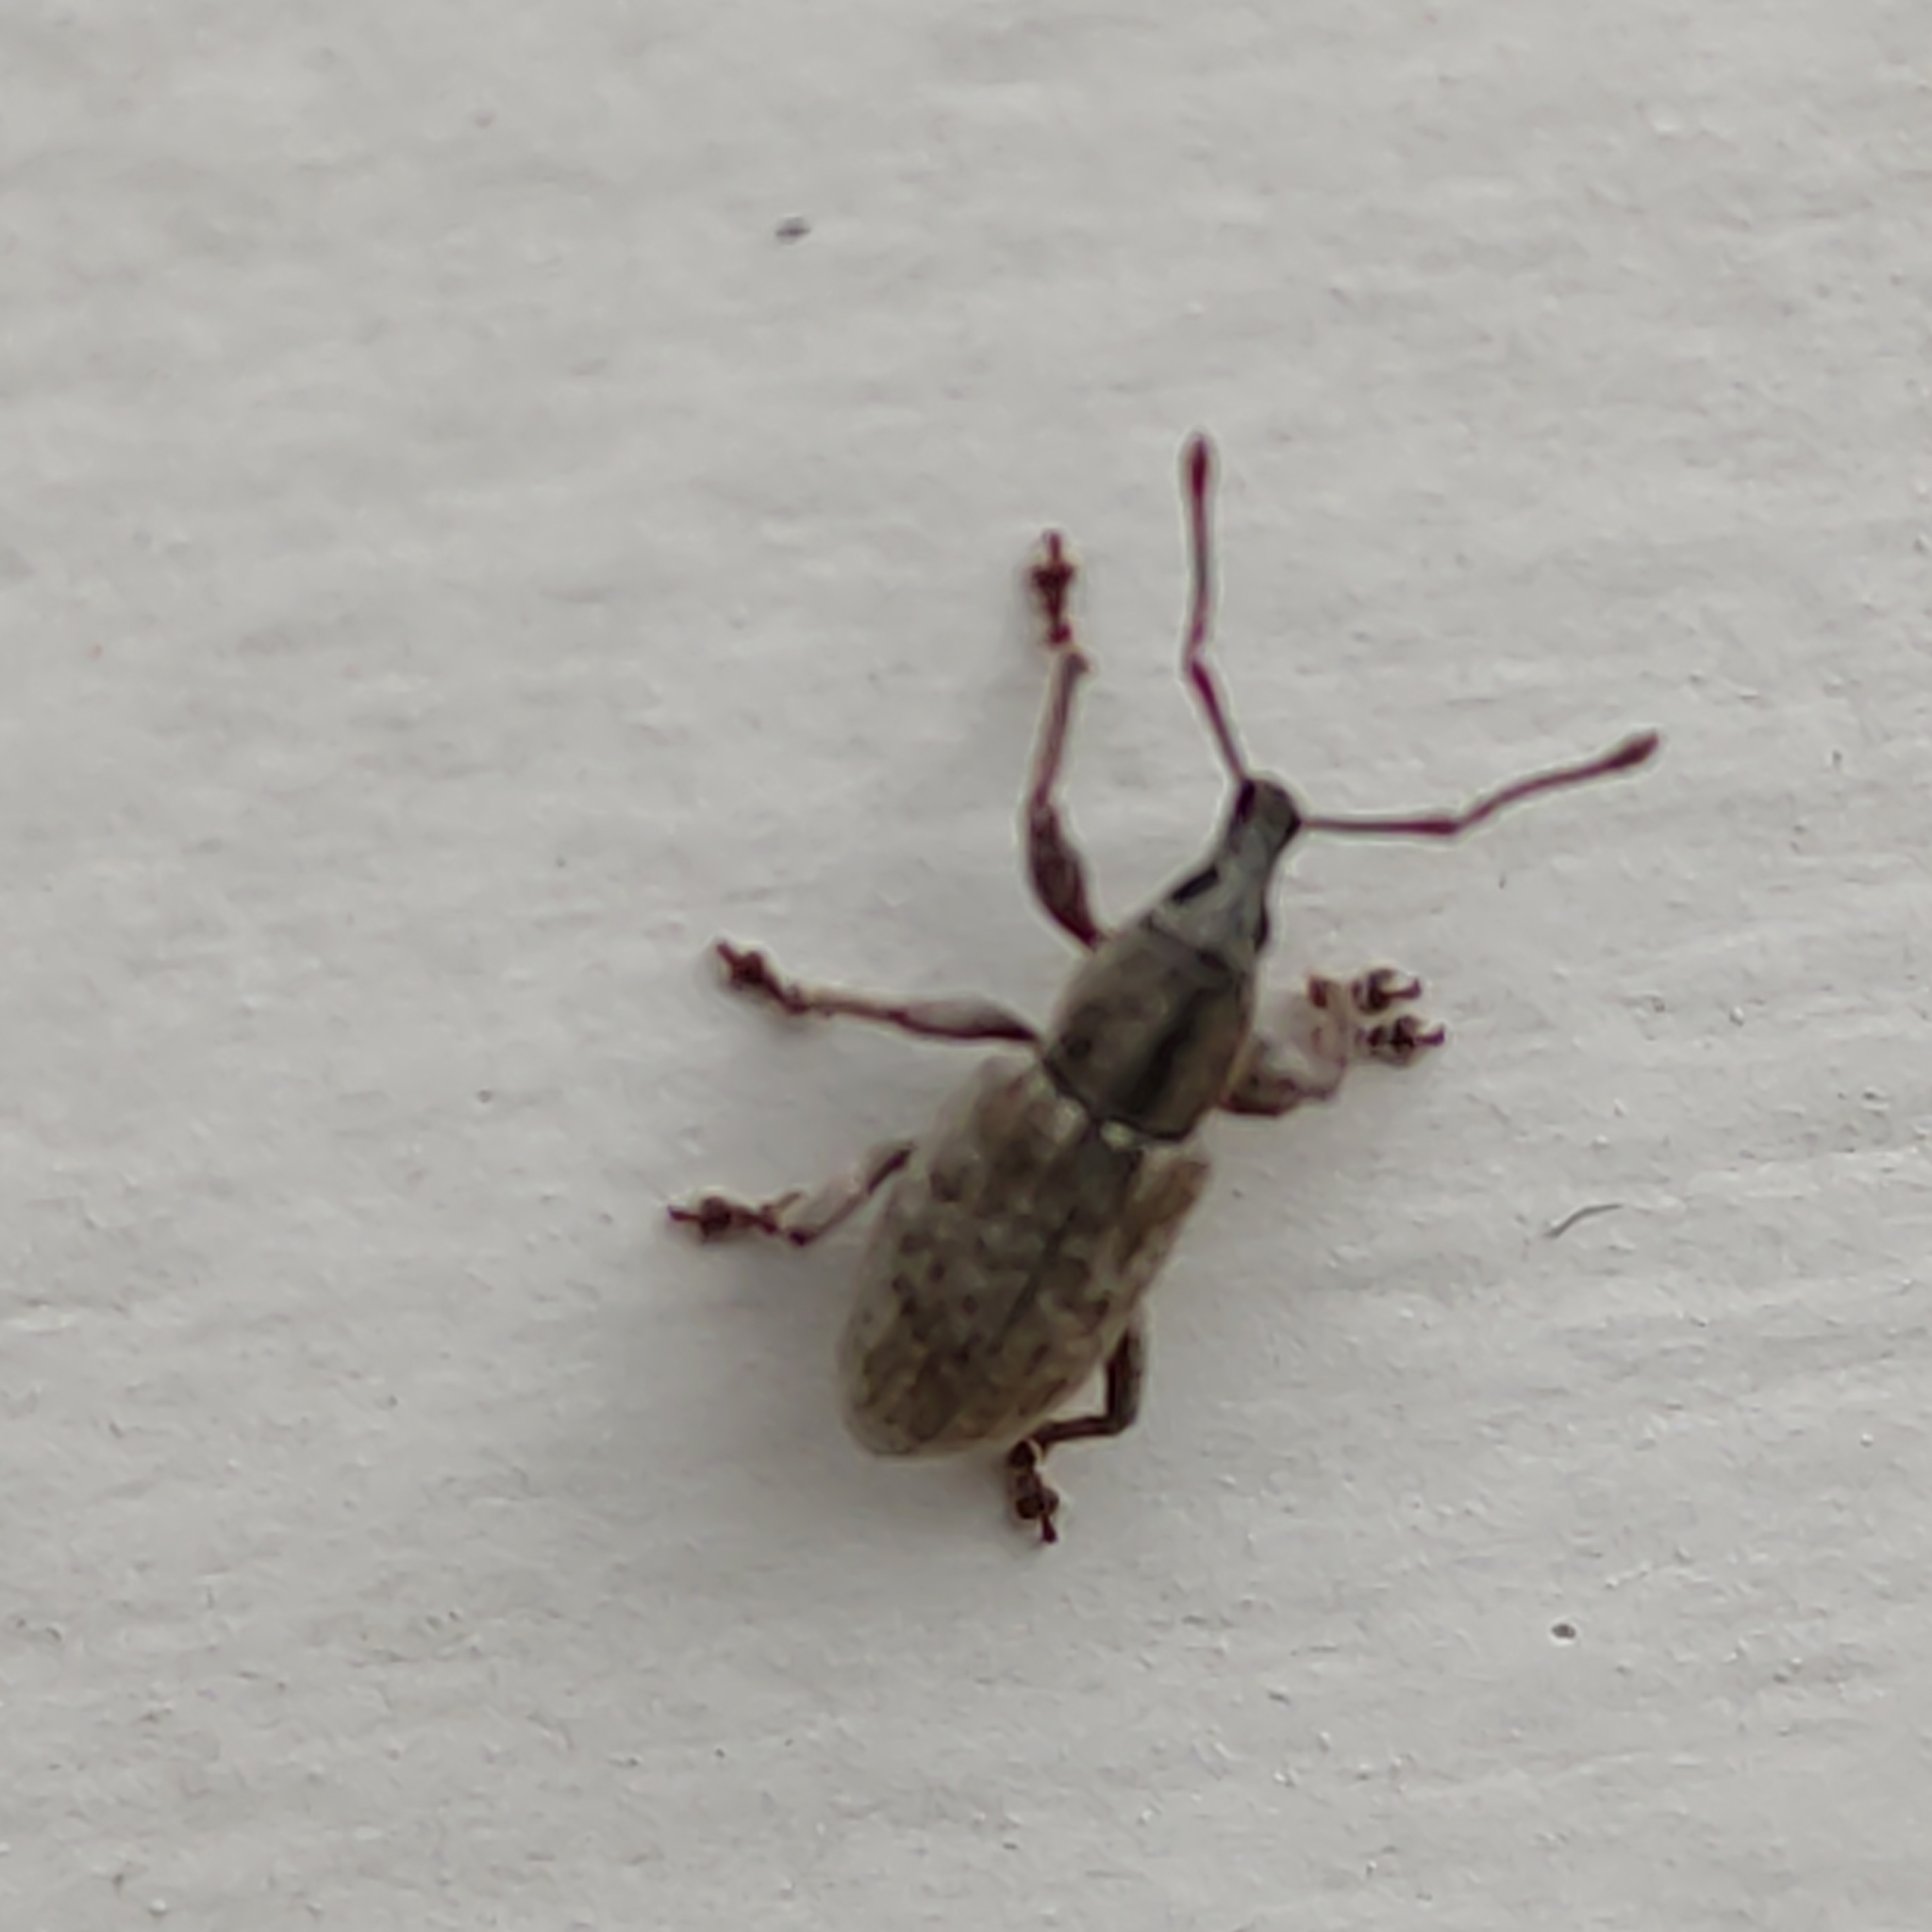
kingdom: Animalia
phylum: Arthropoda
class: Insecta
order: Coleoptera
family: Curculionidae
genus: Nonnotus
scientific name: Nonnotus albicans
